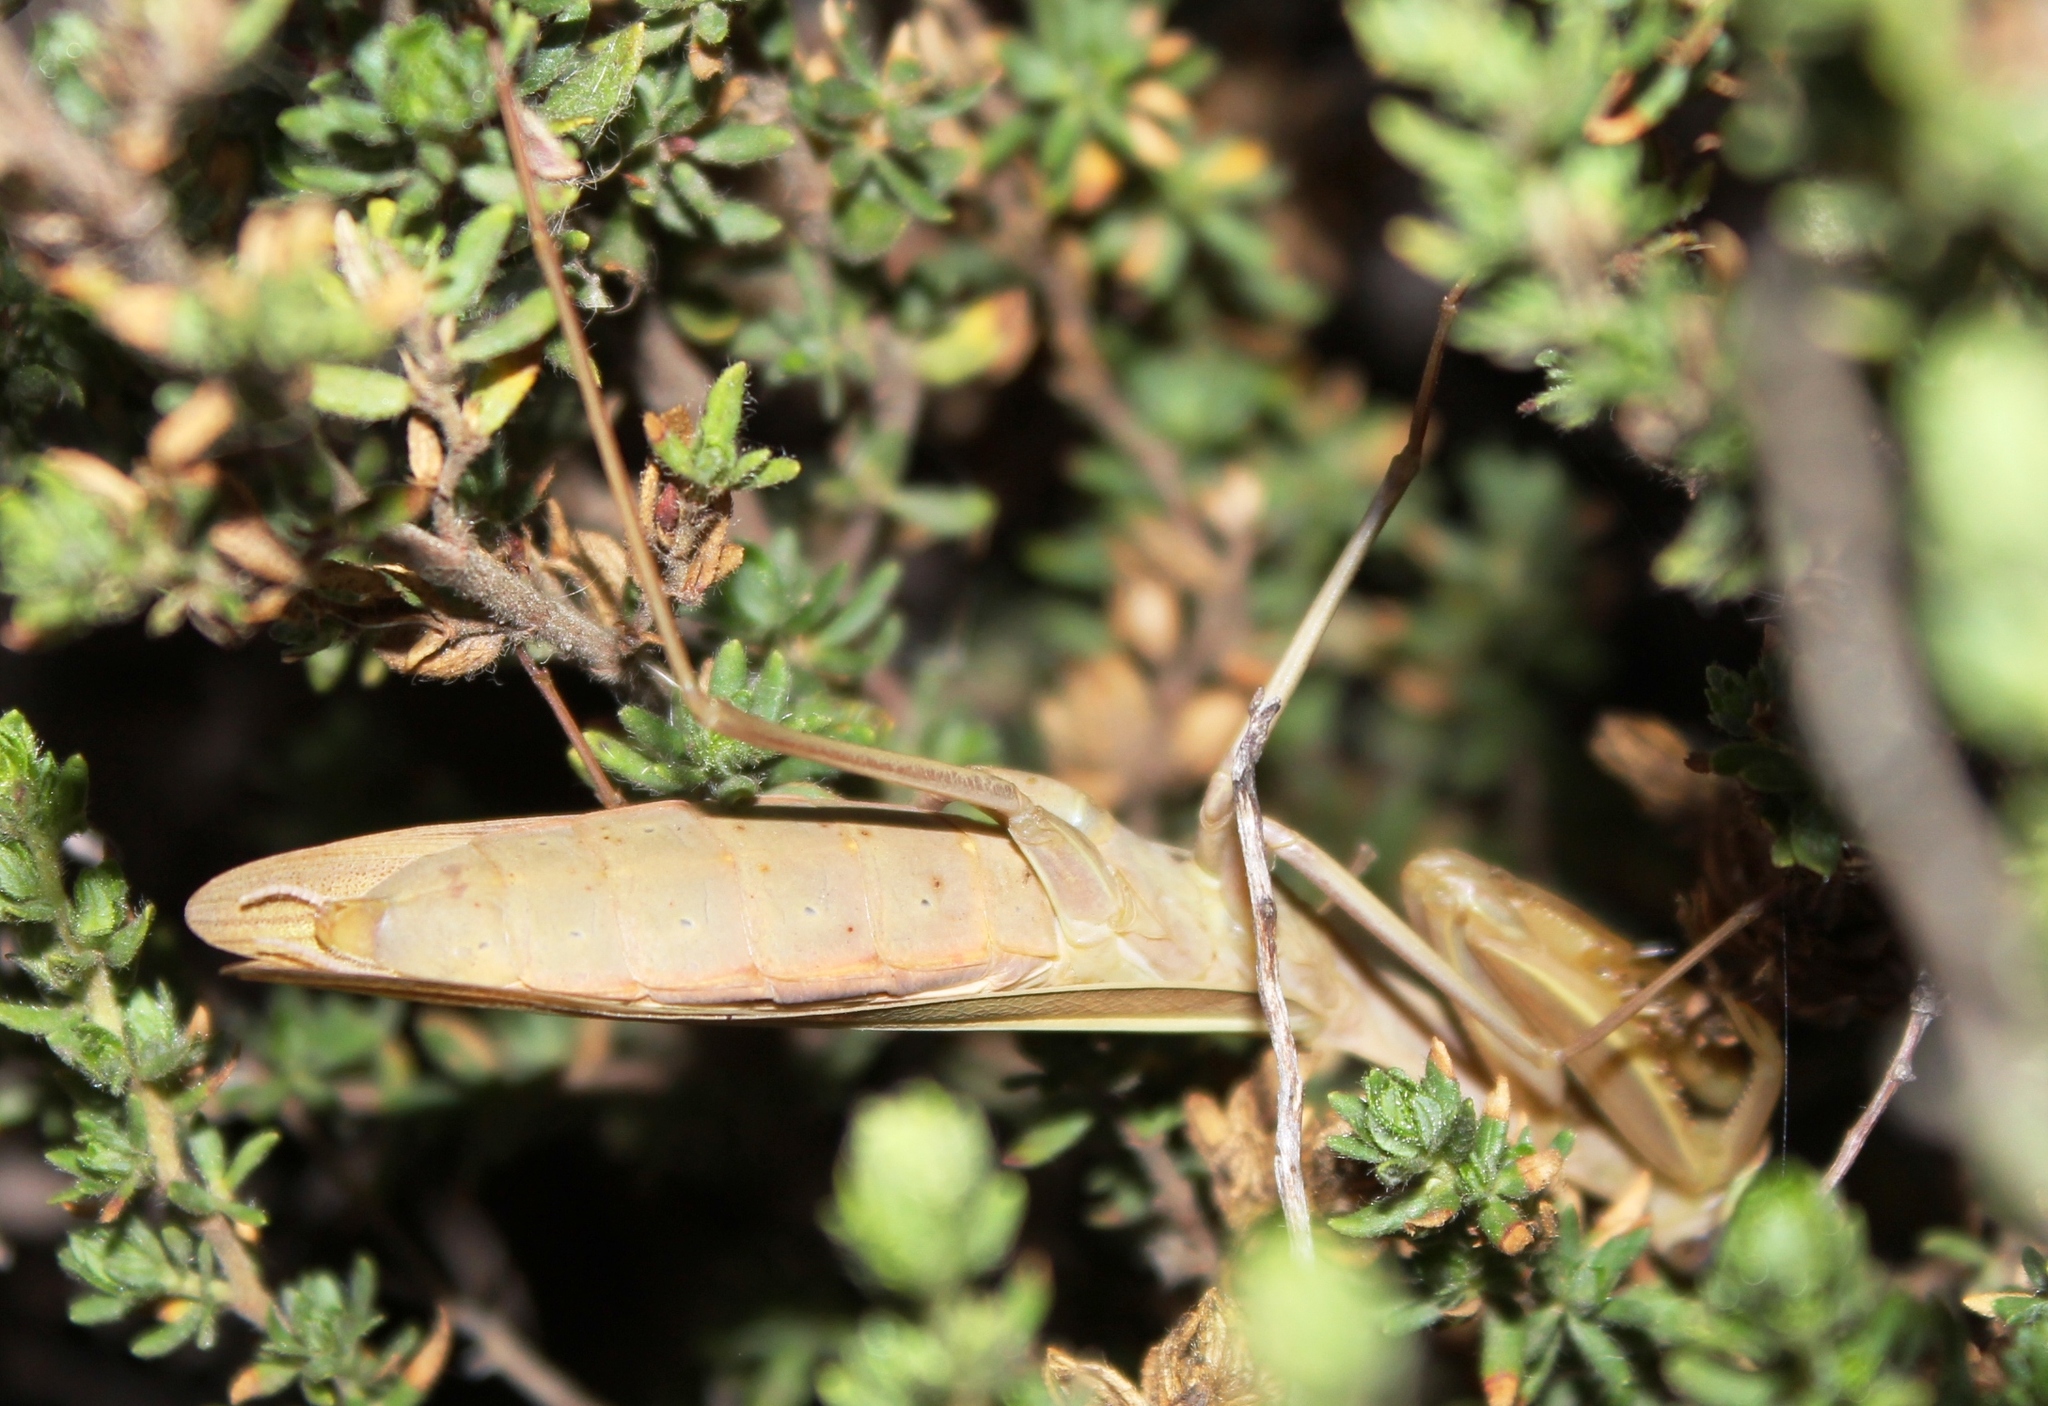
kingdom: Animalia
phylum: Arthropoda
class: Insecta
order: Mantodea
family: Mantidae
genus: Paramantis
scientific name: Paramantis sacra
